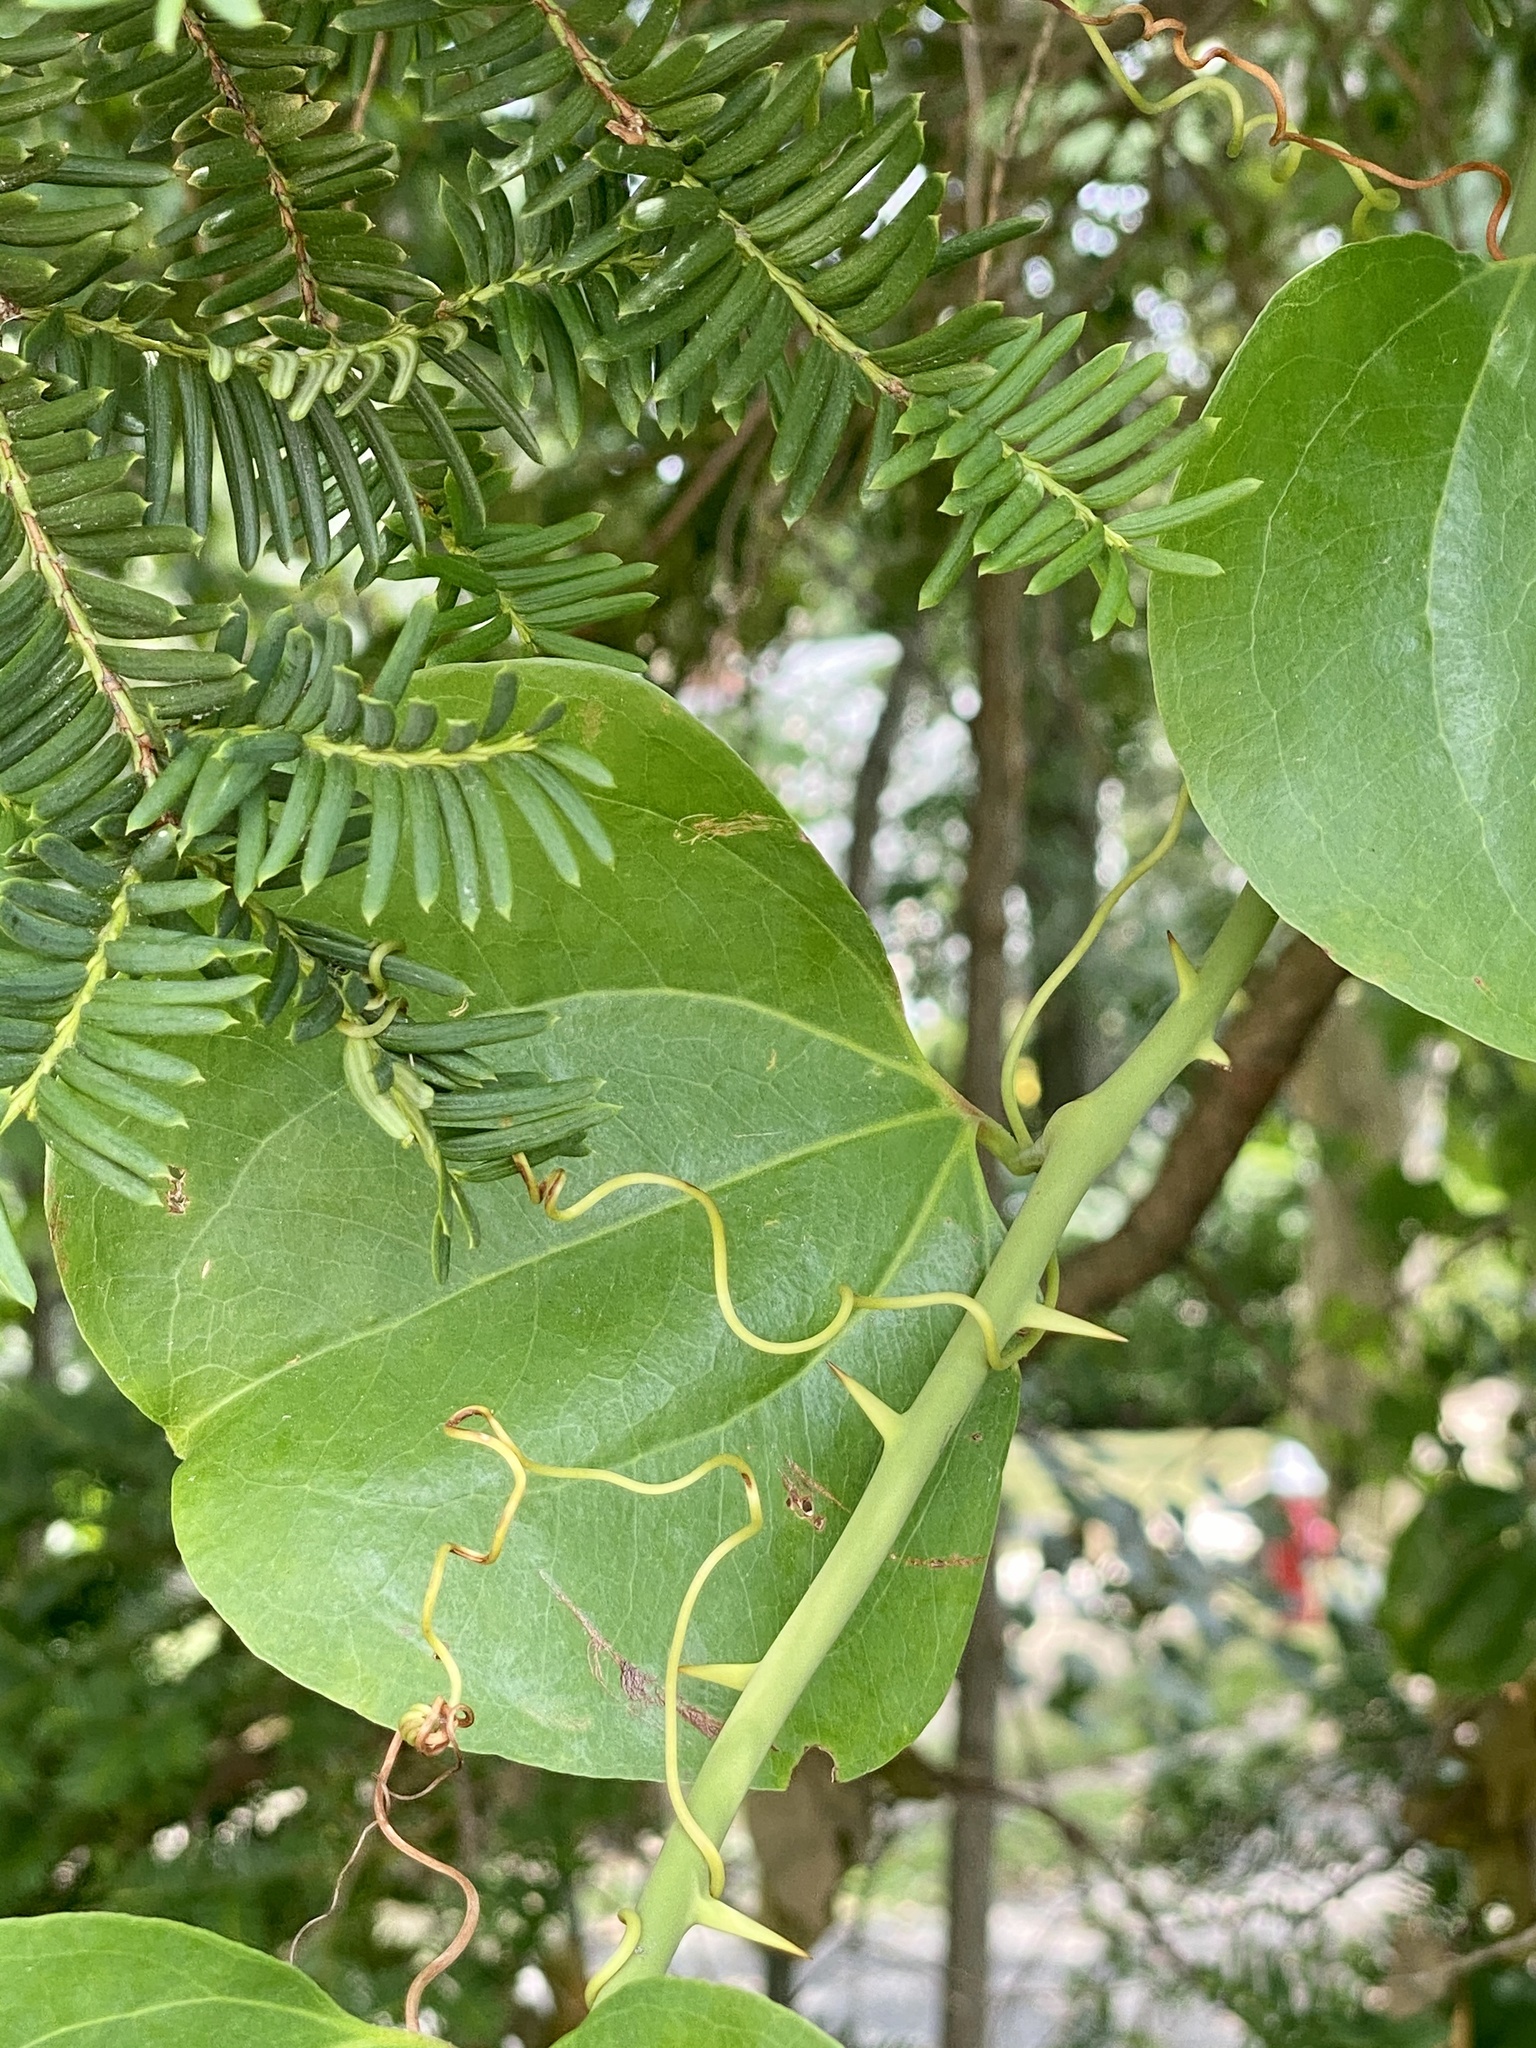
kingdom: Plantae
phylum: Tracheophyta
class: Liliopsida
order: Liliales
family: Smilacaceae
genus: Smilax
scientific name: Smilax rotundifolia
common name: Bullbriar
